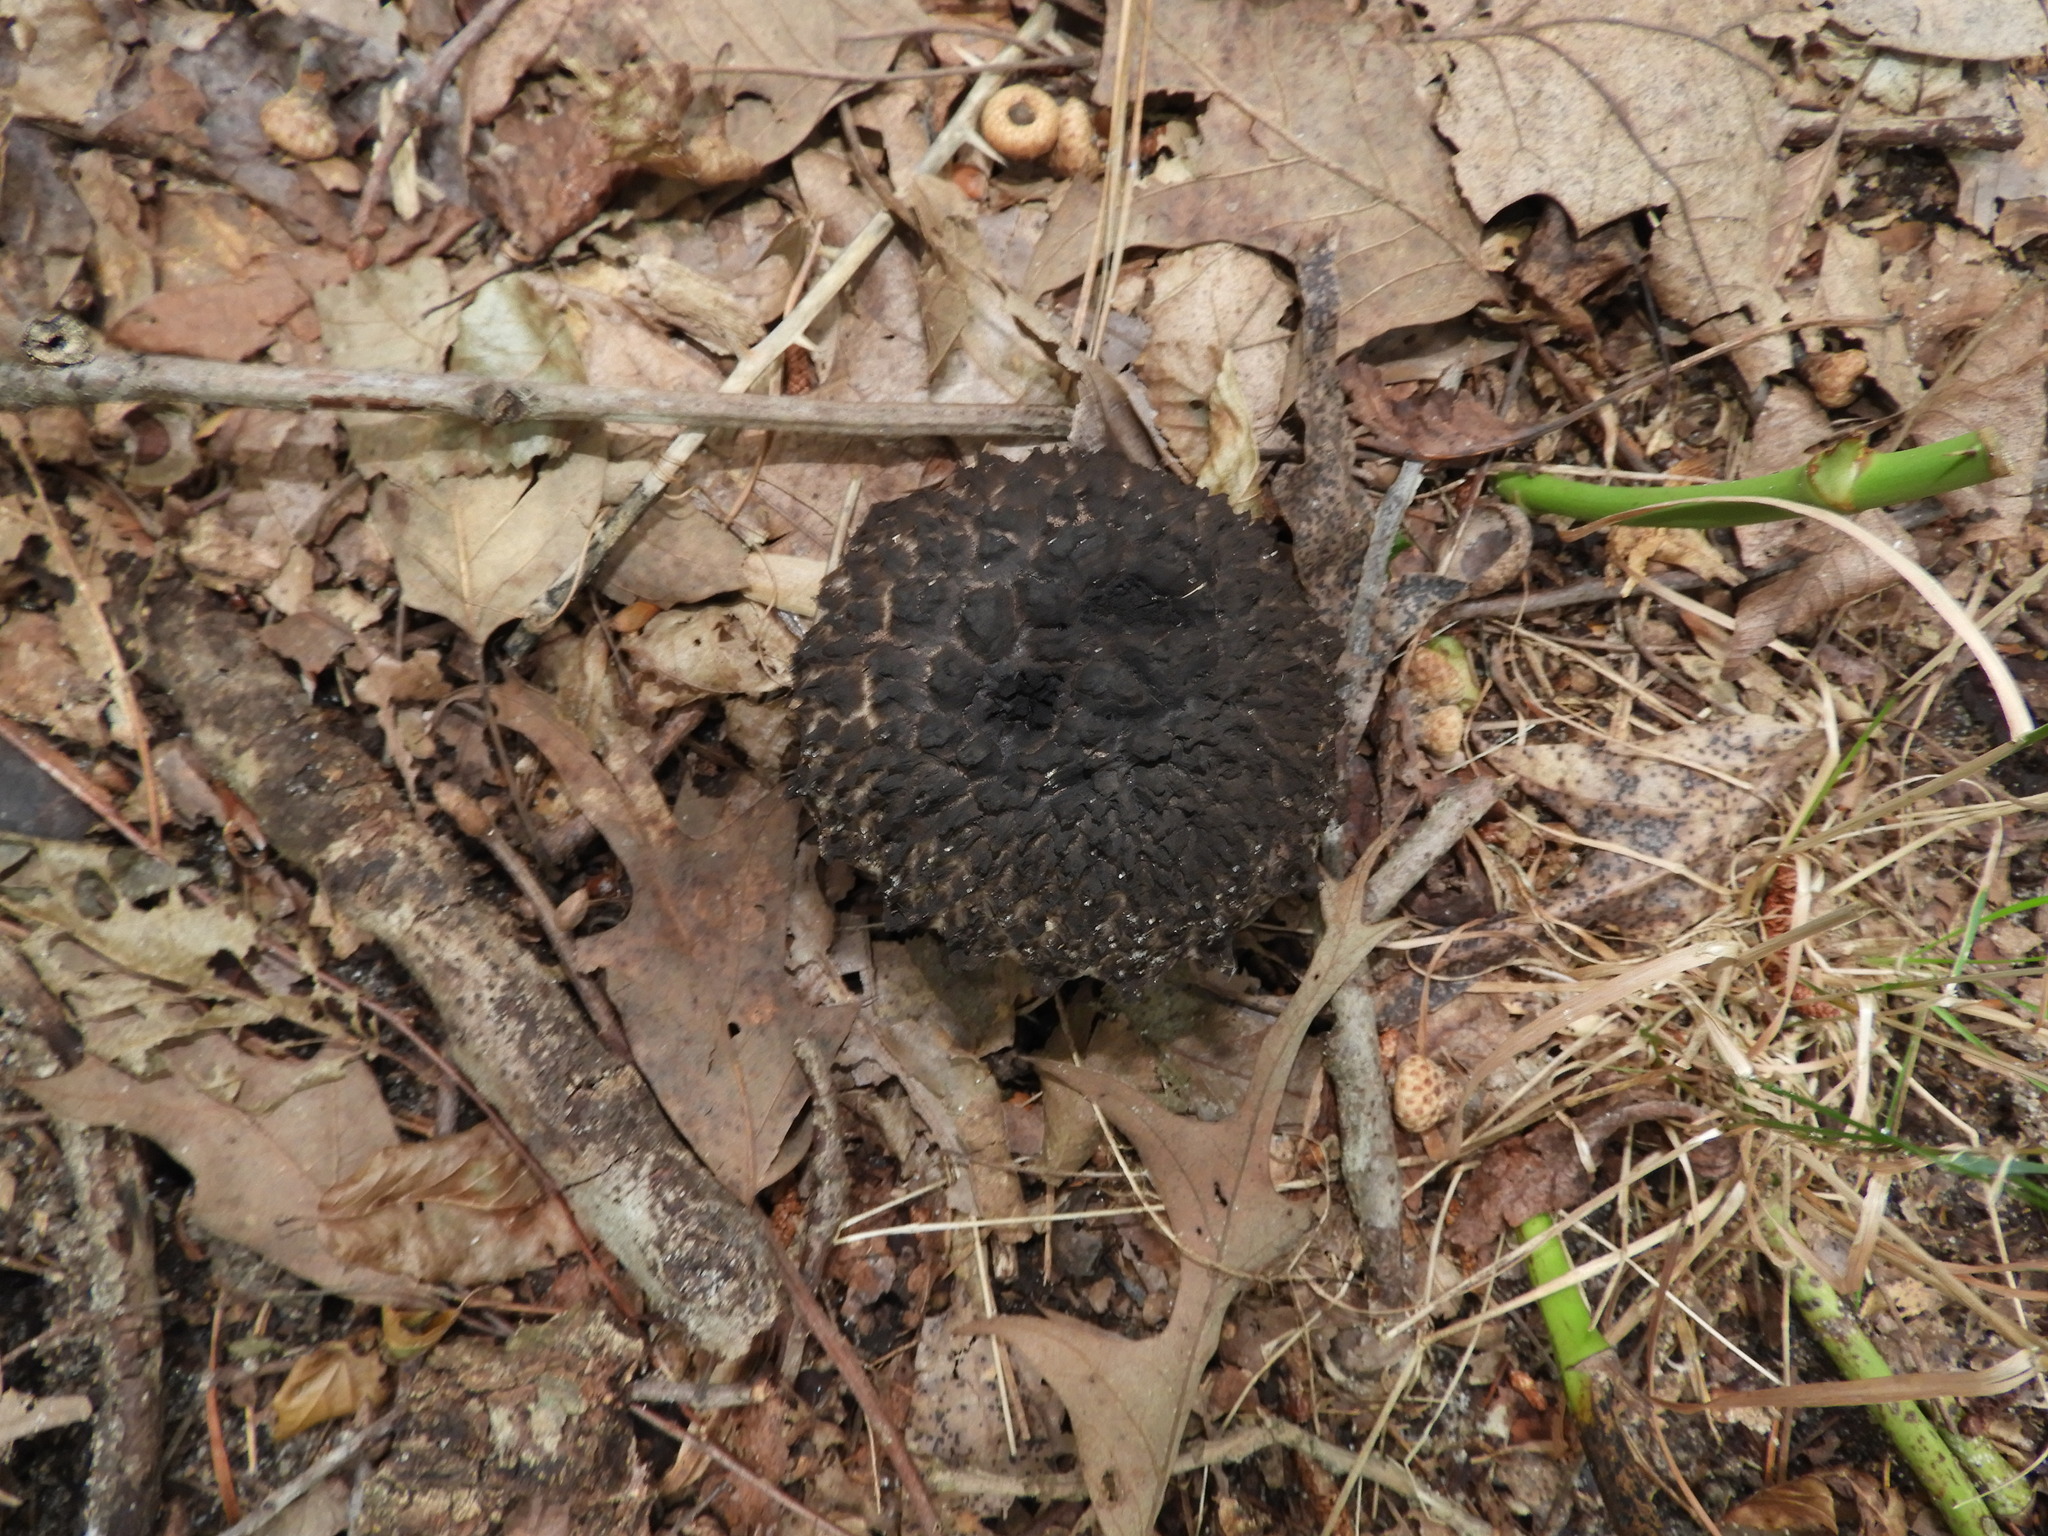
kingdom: Fungi
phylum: Basidiomycota
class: Agaricomycetes
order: Boletales
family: Boletaceae
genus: Strobilomyces
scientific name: Strobilomyces
